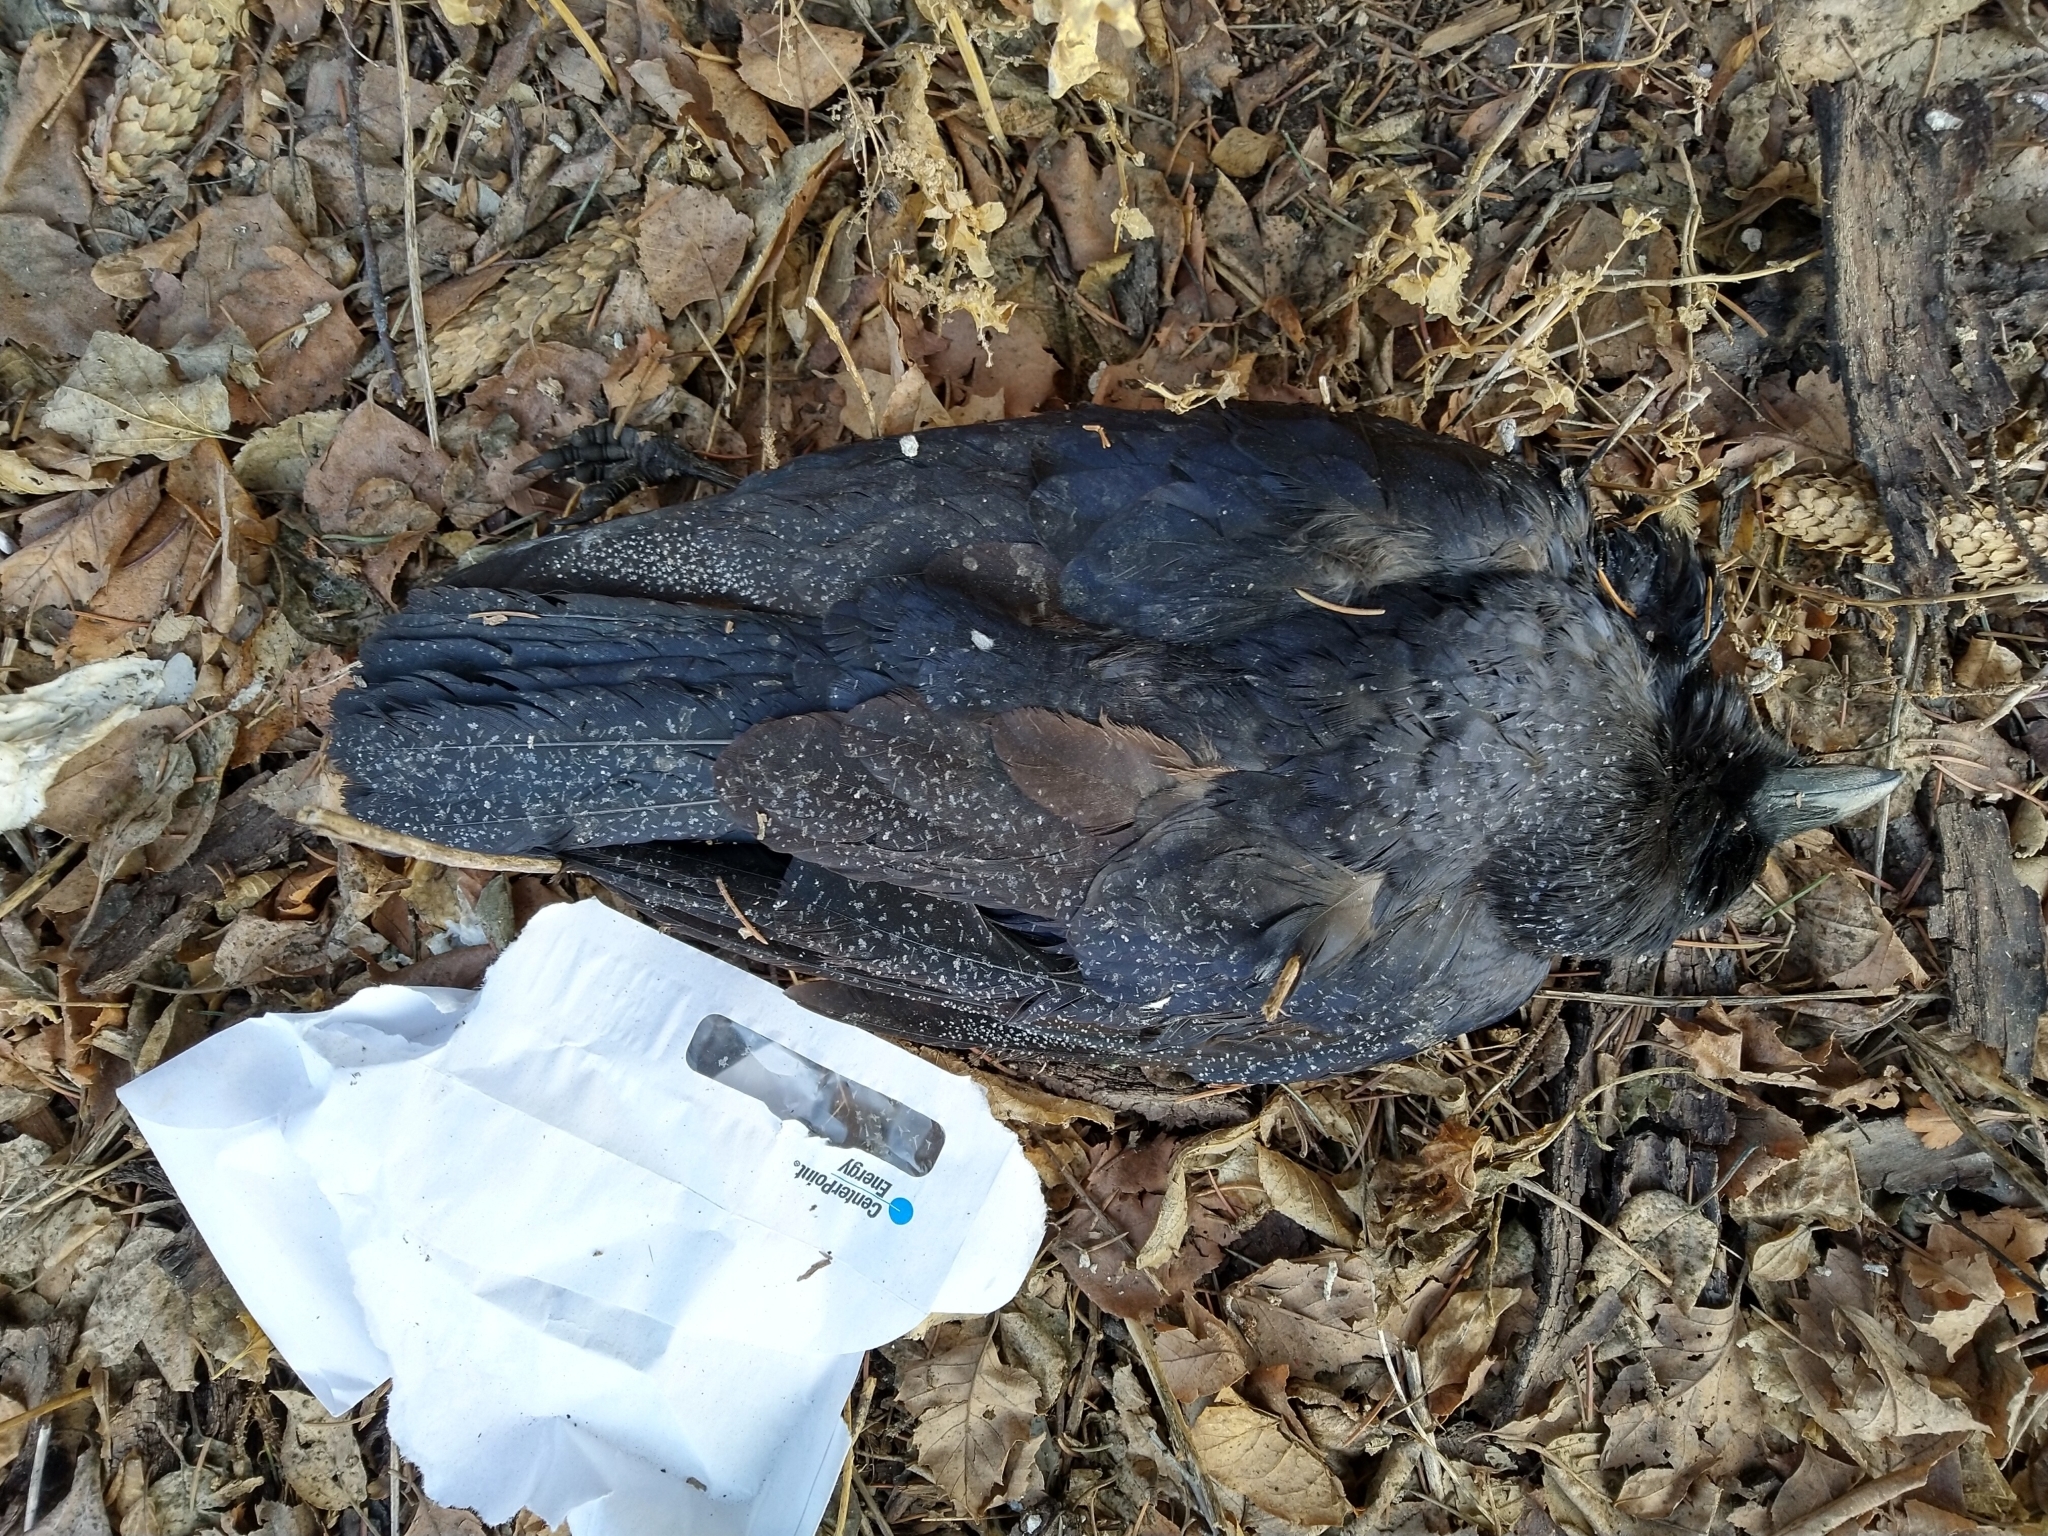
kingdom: Animalia
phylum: Chordata
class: Aves
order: Passeriformes
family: Corvidae
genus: Corvus
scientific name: Corvus brachyrhynchos
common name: American crow
